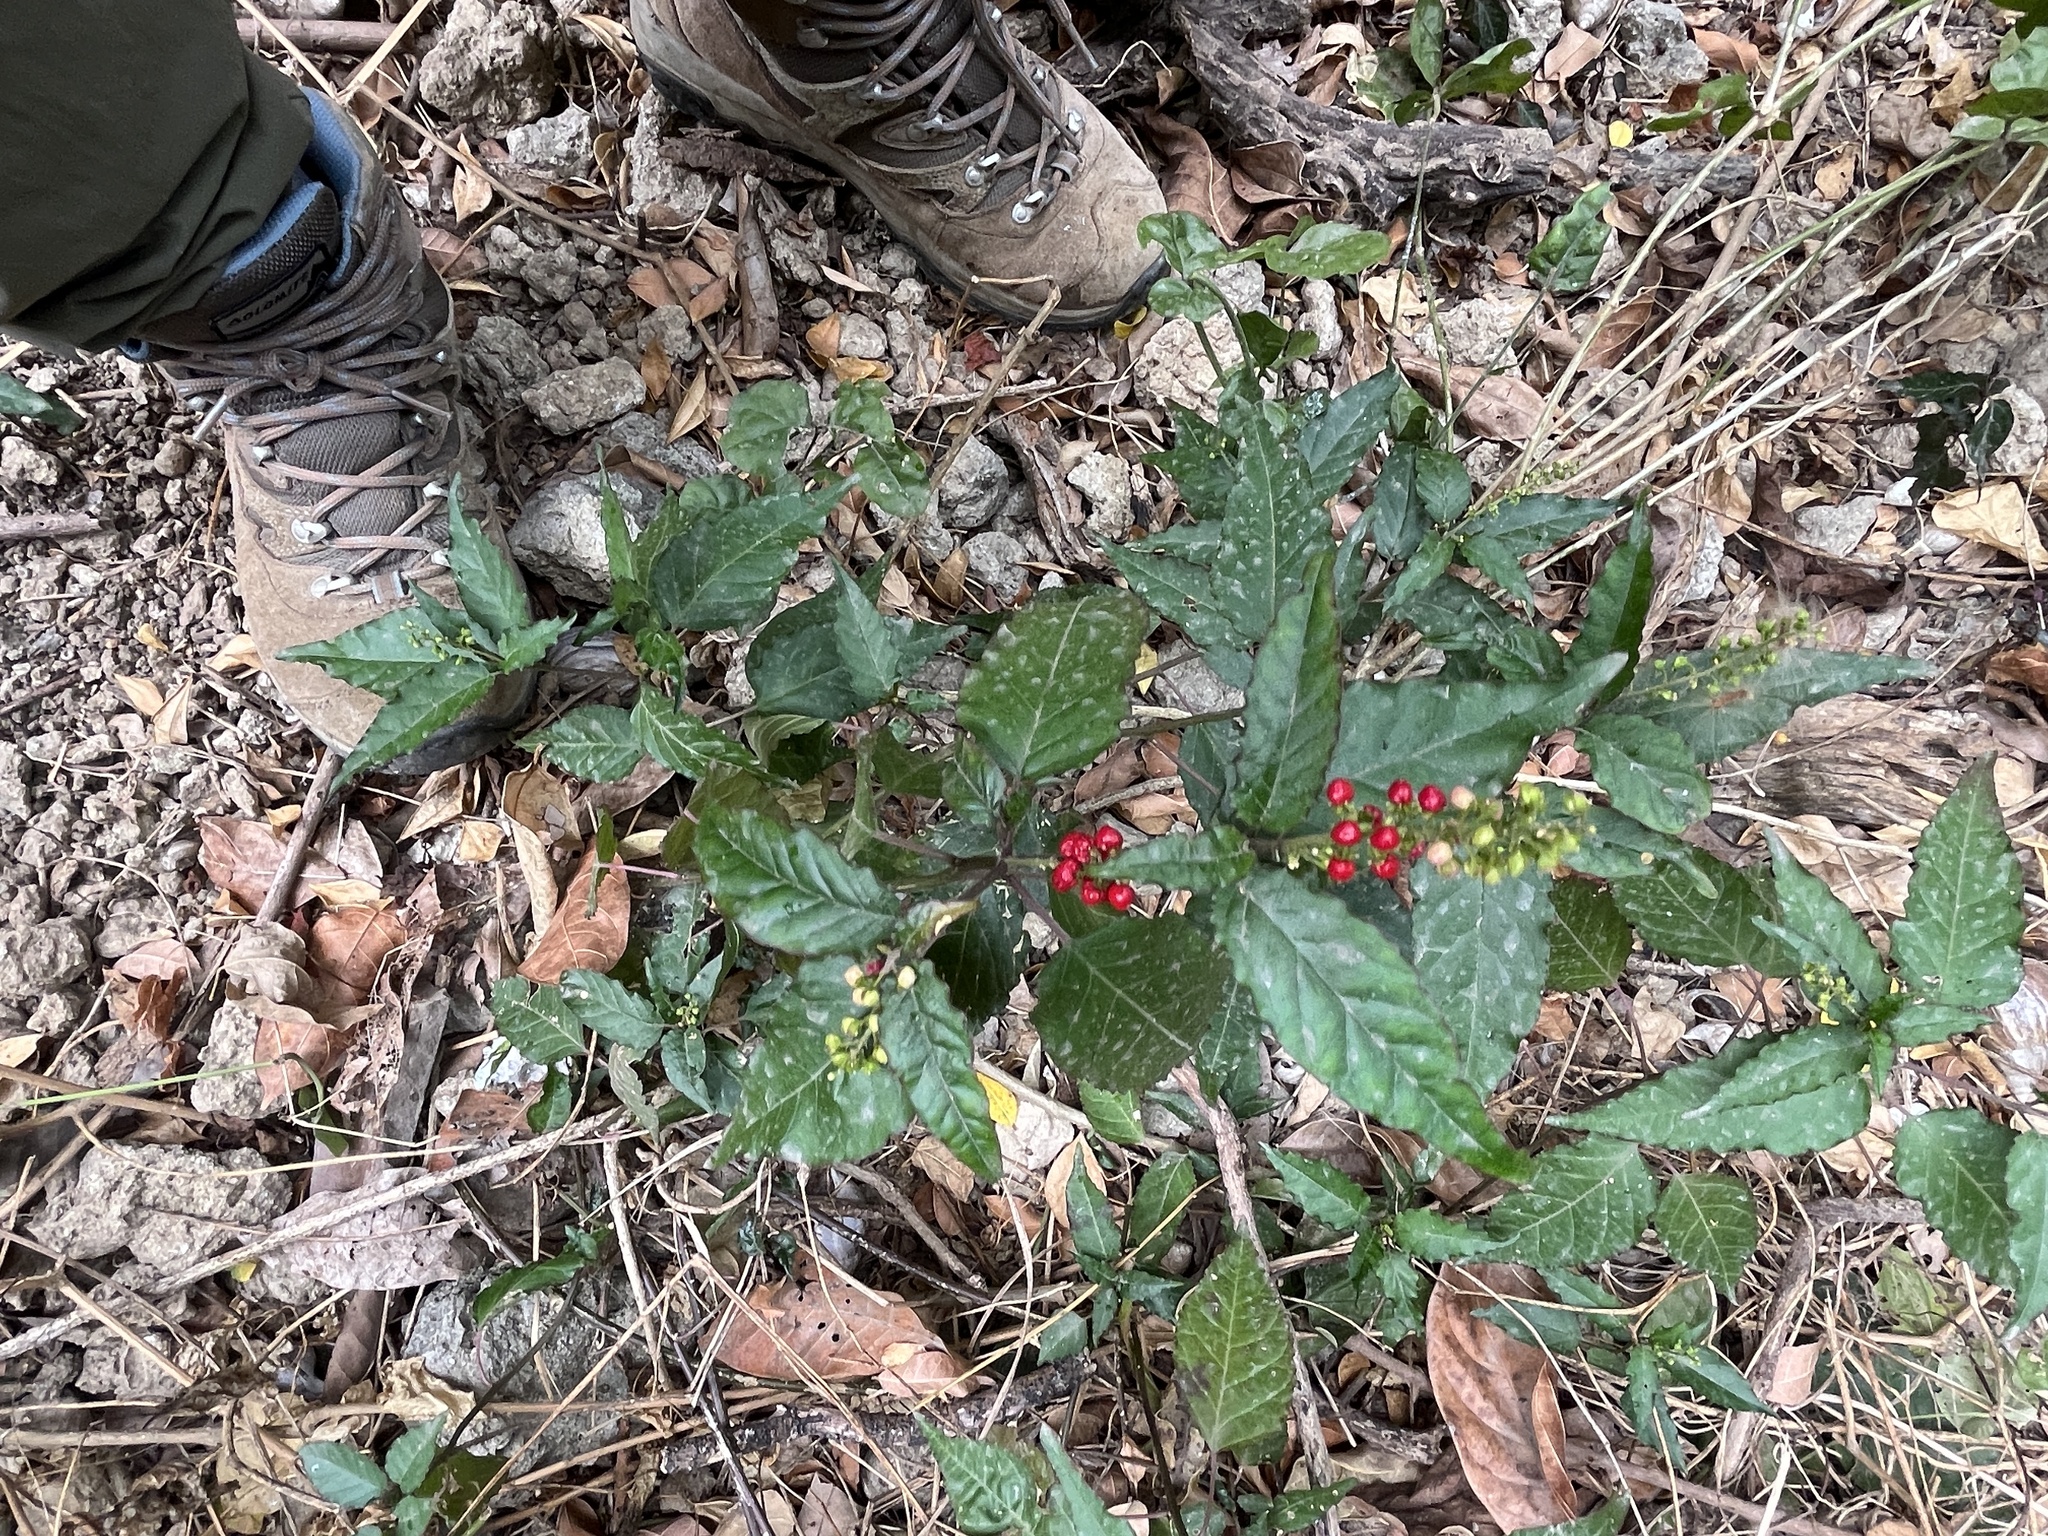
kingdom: Plantae
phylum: Tracheophyta
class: Magnoliopsida
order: Caryophyllales
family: Phytolaccaceae
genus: Rivina
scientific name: Rivina humilis
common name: Rougeplant
